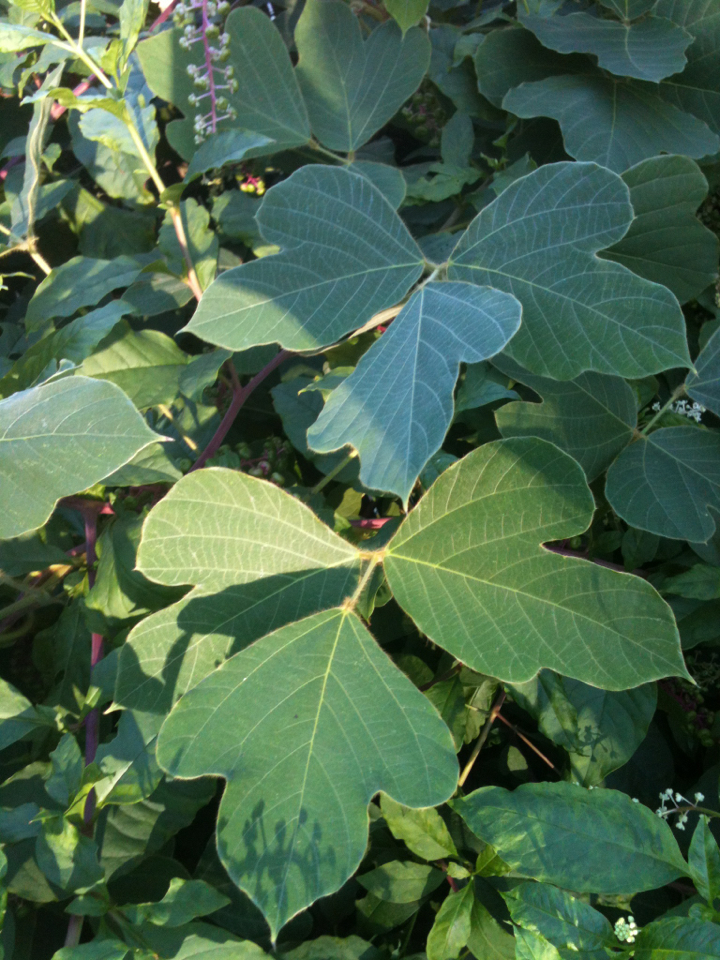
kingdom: Plantae
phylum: Tracheophyta
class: Magnoliopsida
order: Fabales
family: Fabaceae
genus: Pueraria
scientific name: Pueraria montana
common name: Kudzu
